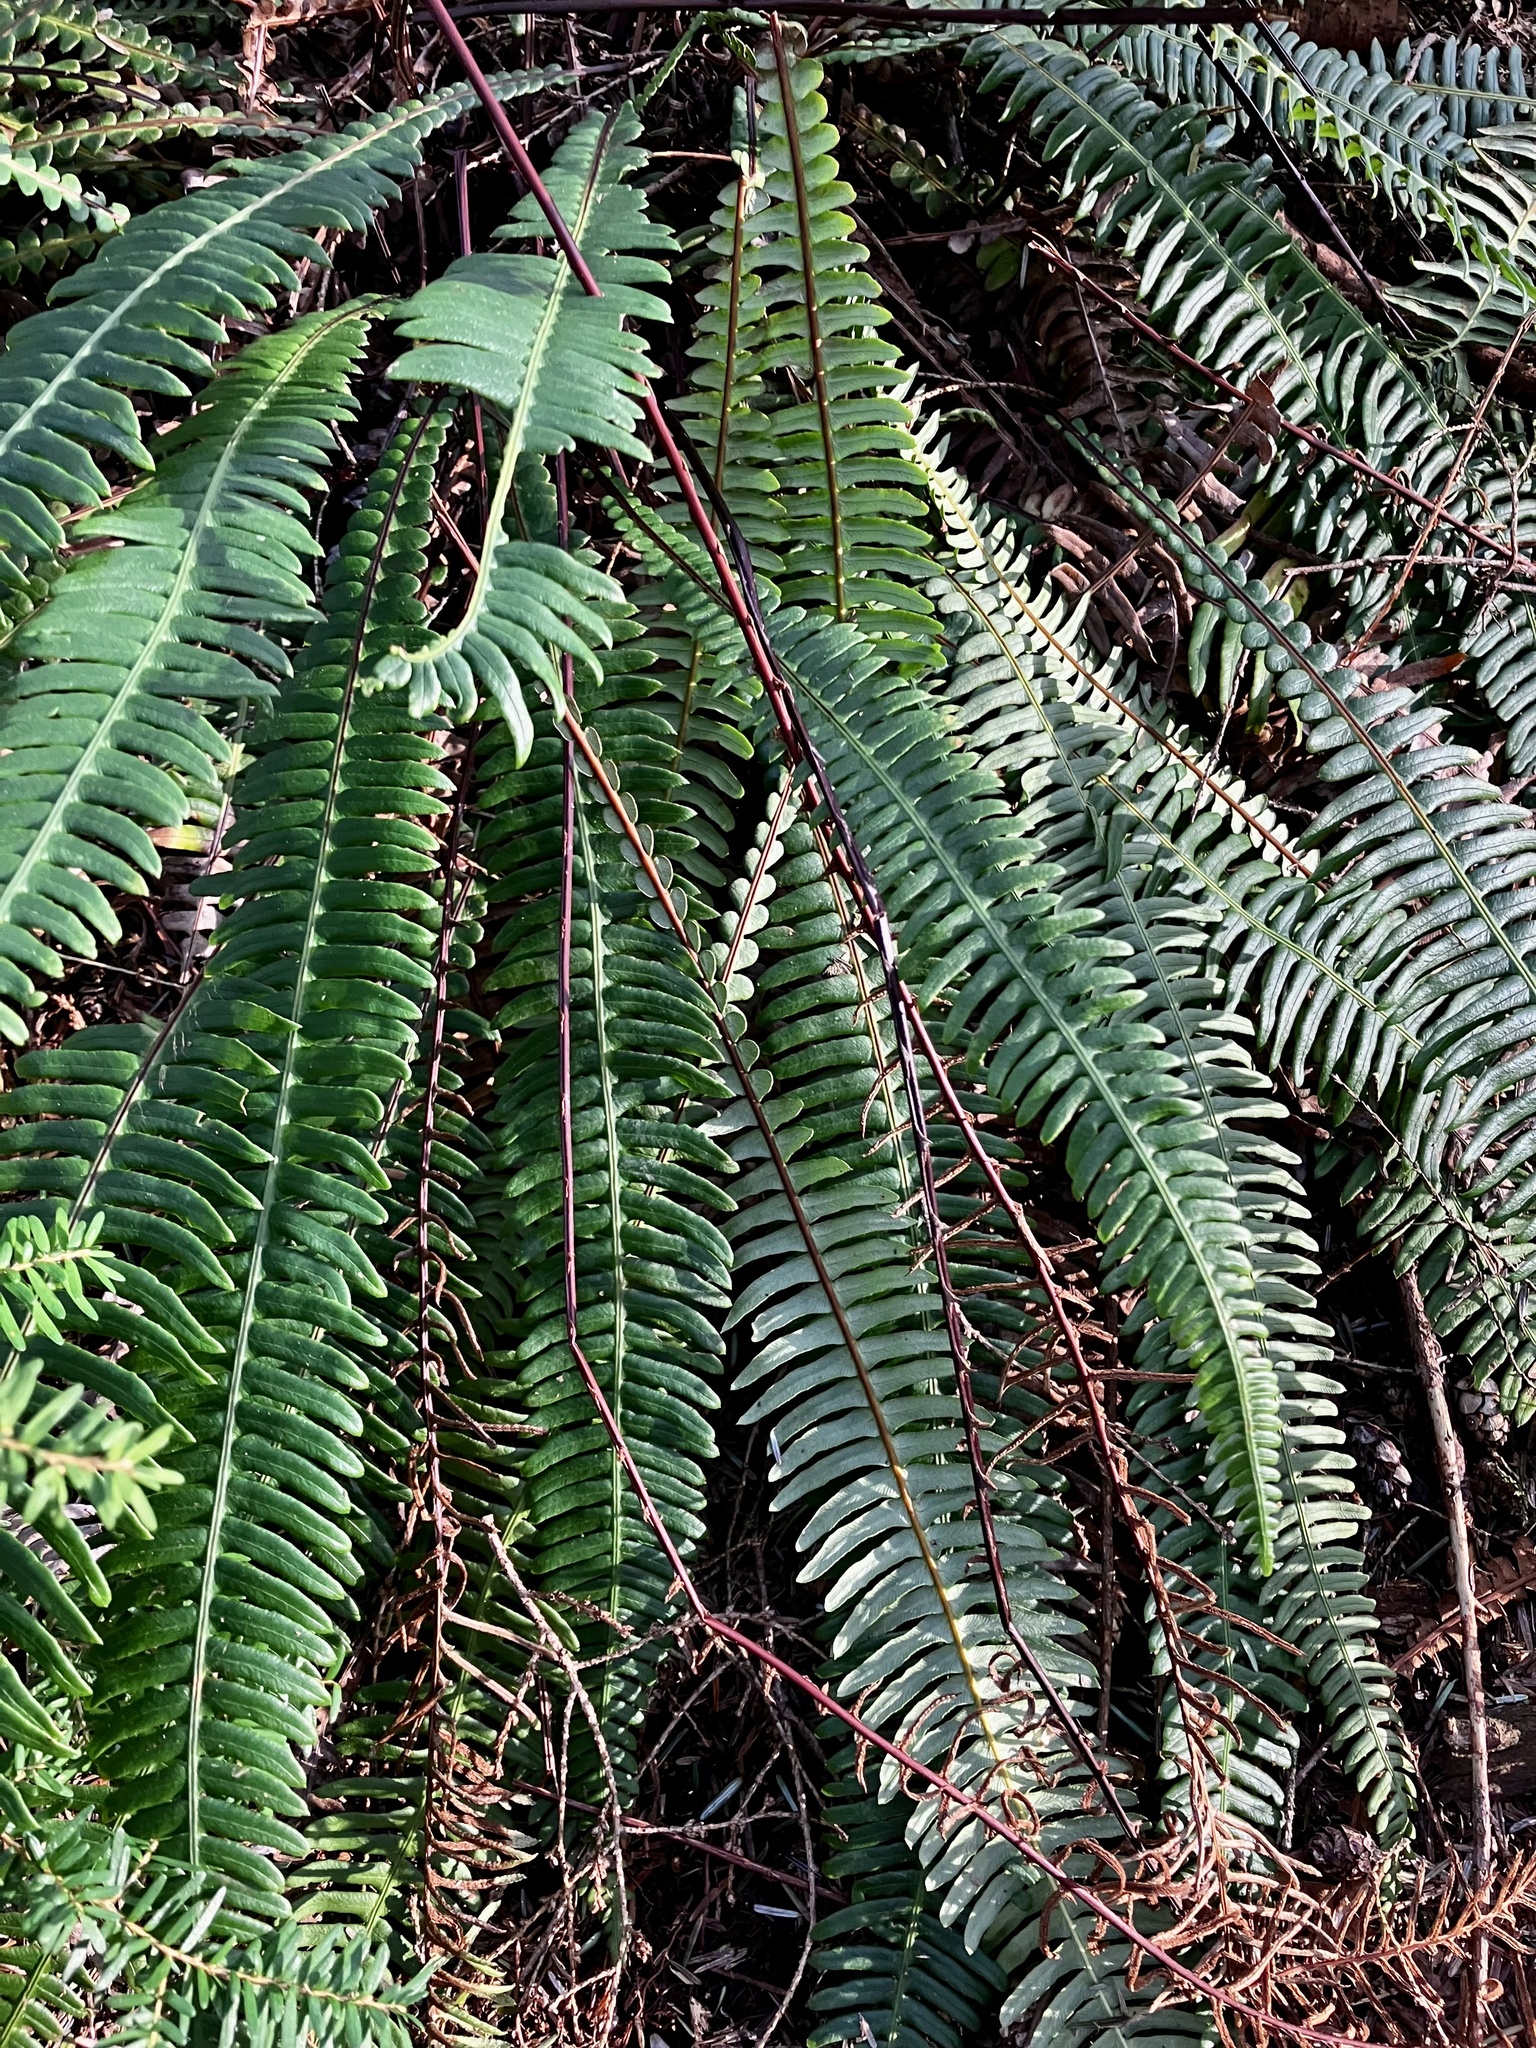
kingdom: Plantae
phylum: Tracheophyta
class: Polypodiopsida
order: Polypodiales
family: Blechnaceae
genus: Struthiopteris
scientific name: Struthiopteris spicant
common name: Deer fern
